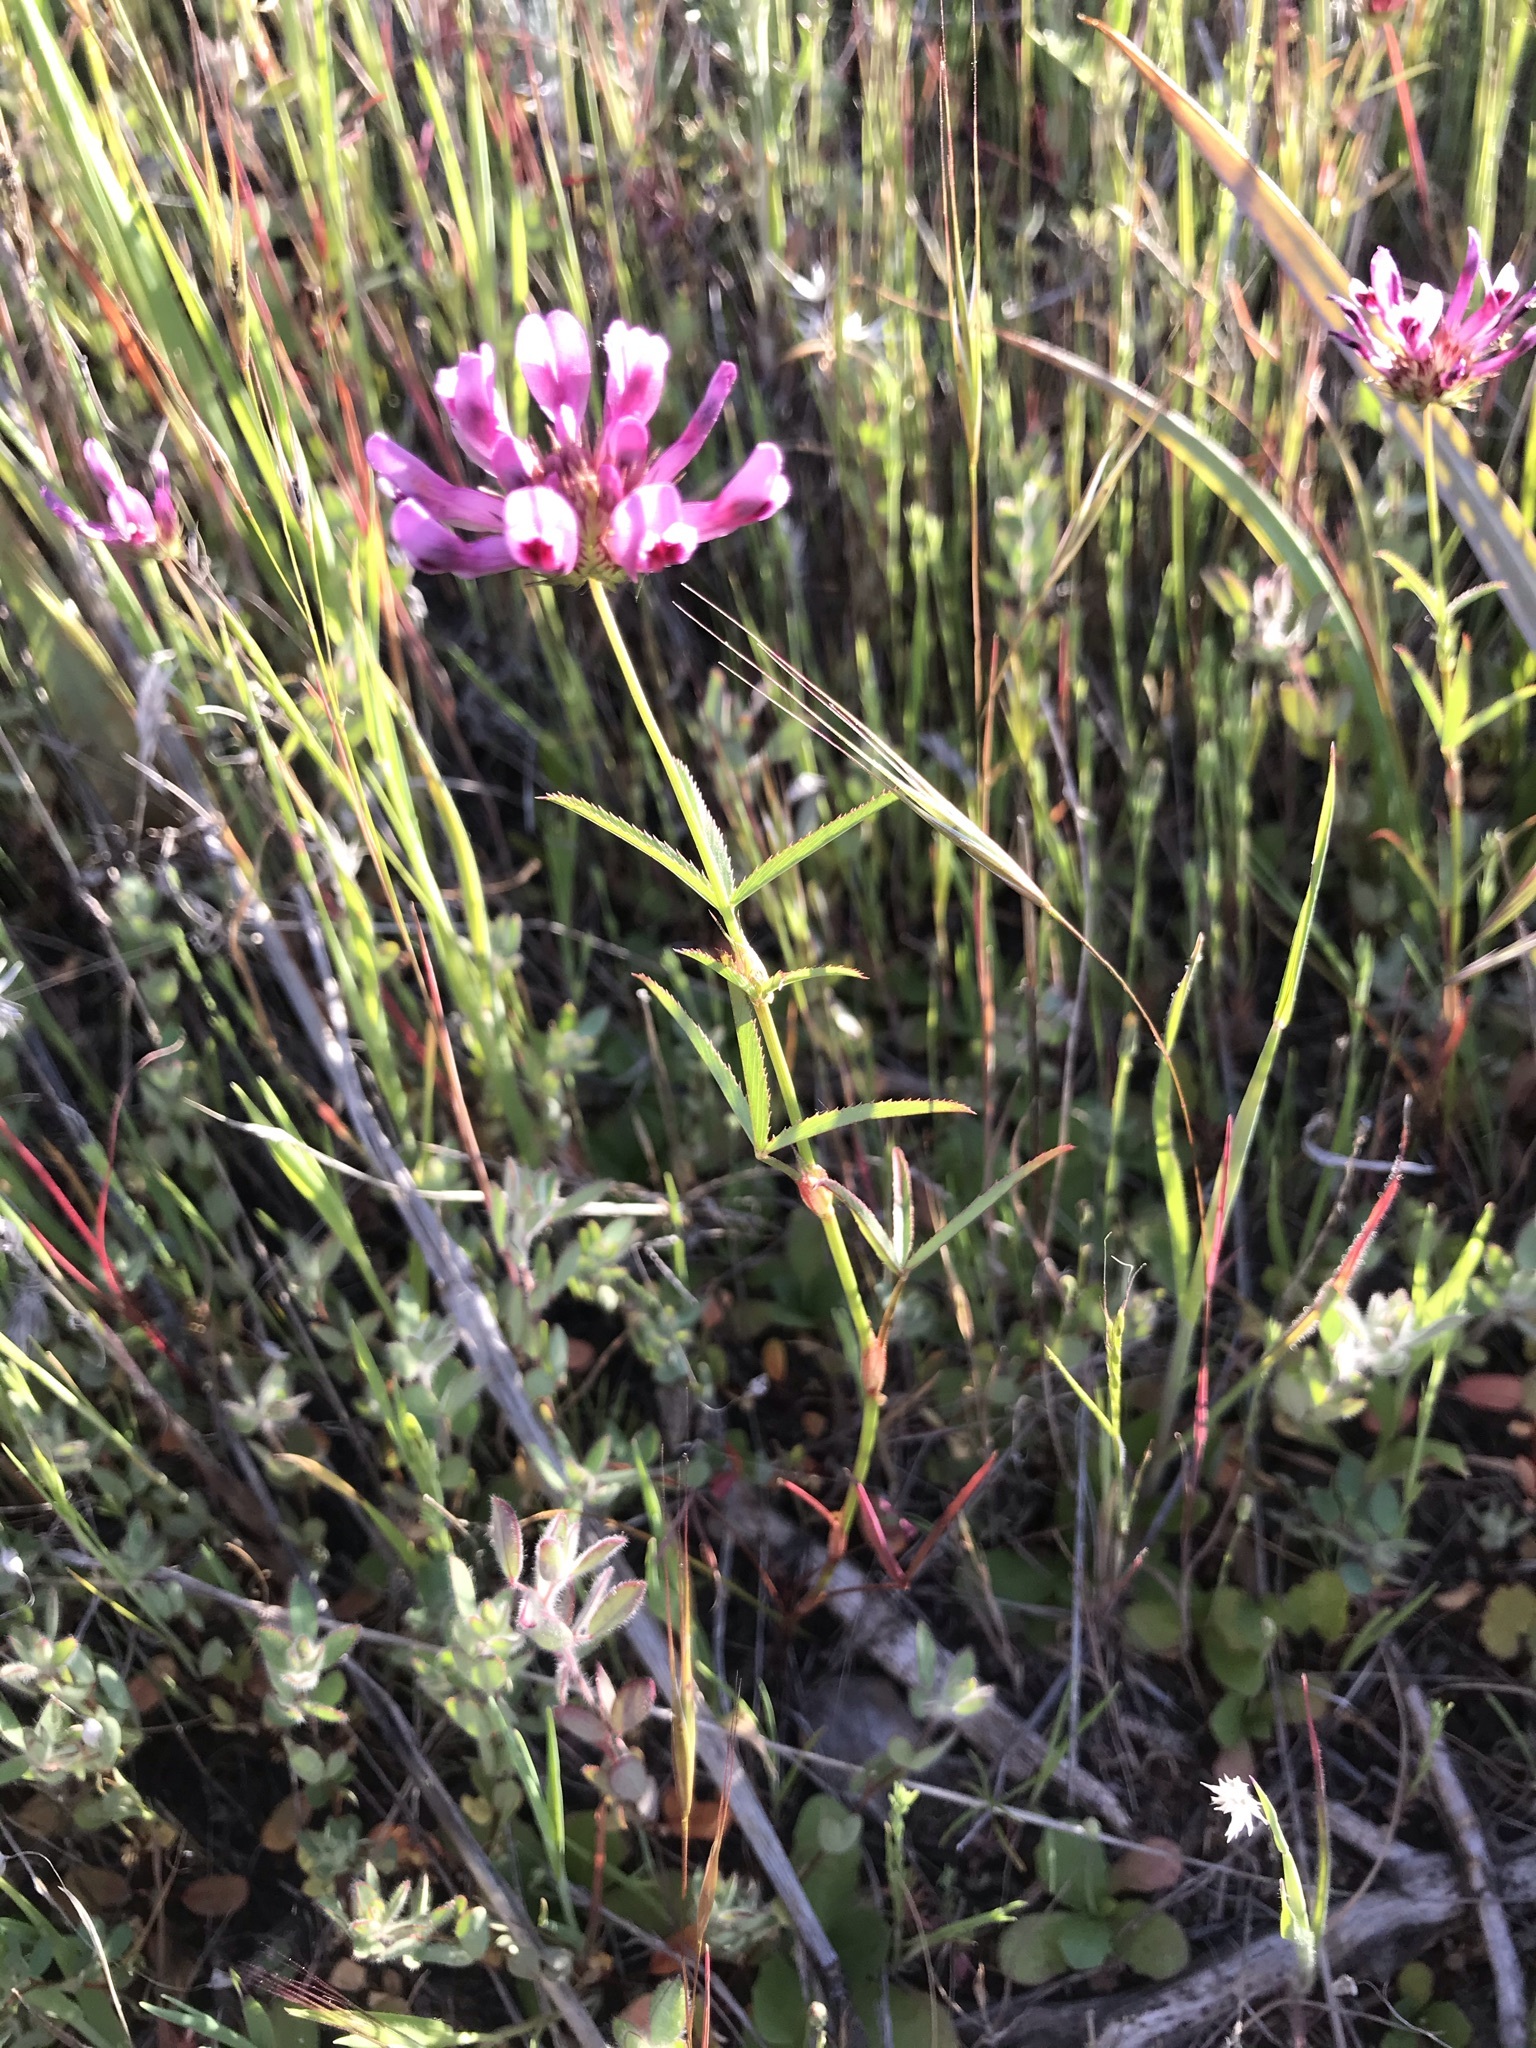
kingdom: Plantae
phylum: Tracheophyta
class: Magnoliopsida
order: Fabales
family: Fabaceae
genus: Trifolium
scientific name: Trifolium willdenovii
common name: Tomcat clover
